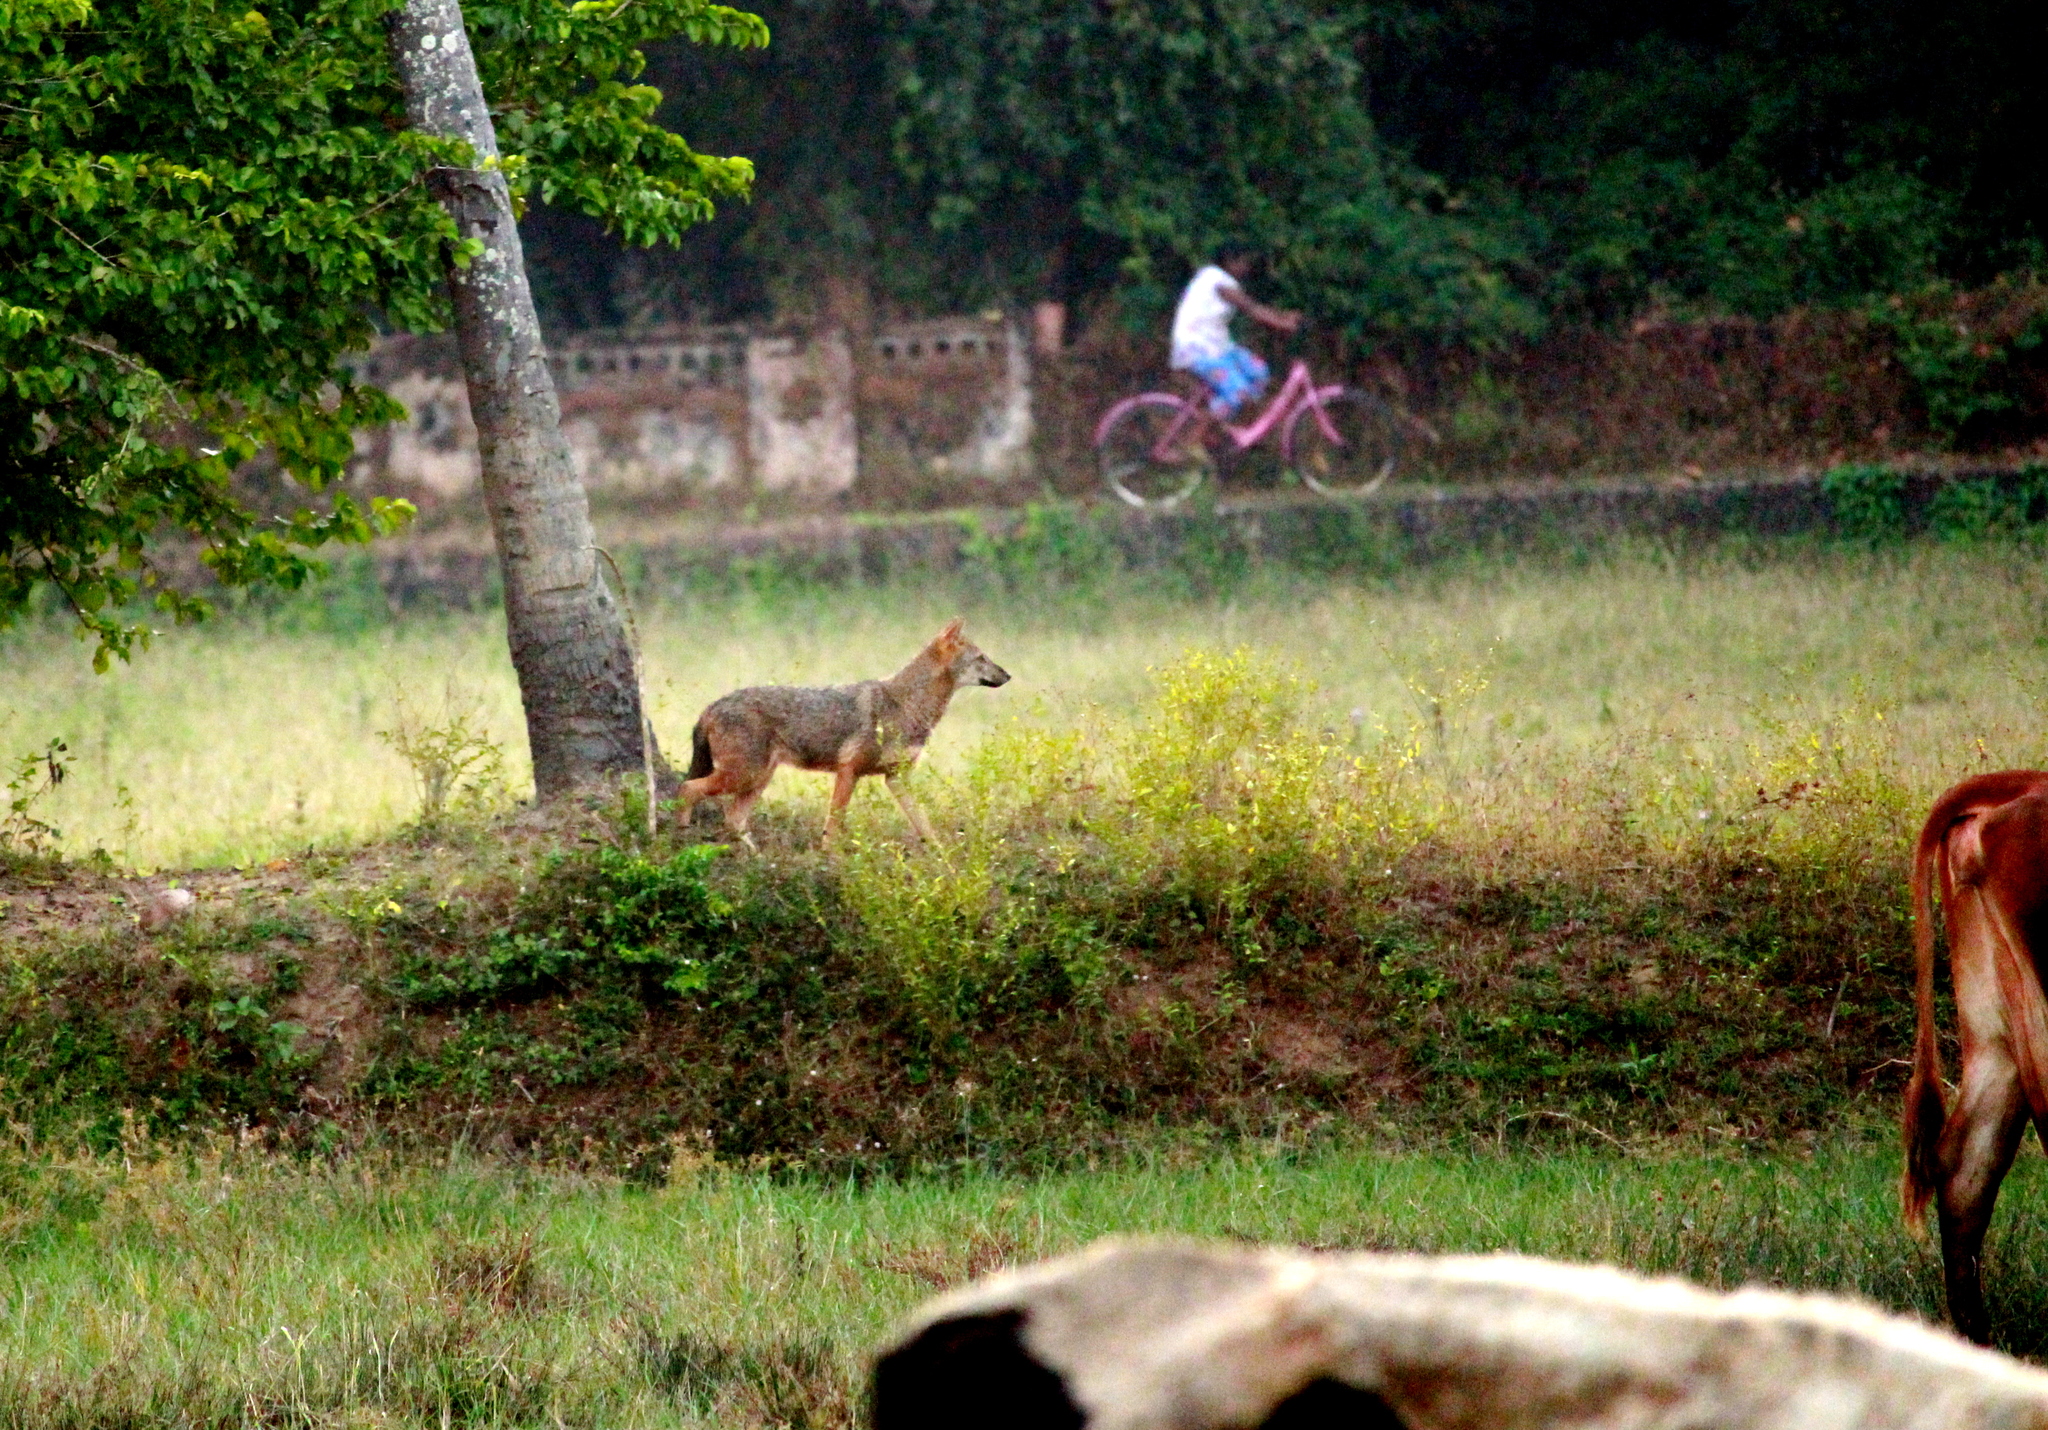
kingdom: Animalia
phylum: Chordata
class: Mammalia
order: Carnivora
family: Canidae
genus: Canis
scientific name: Canis aureus
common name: Golden jackal
